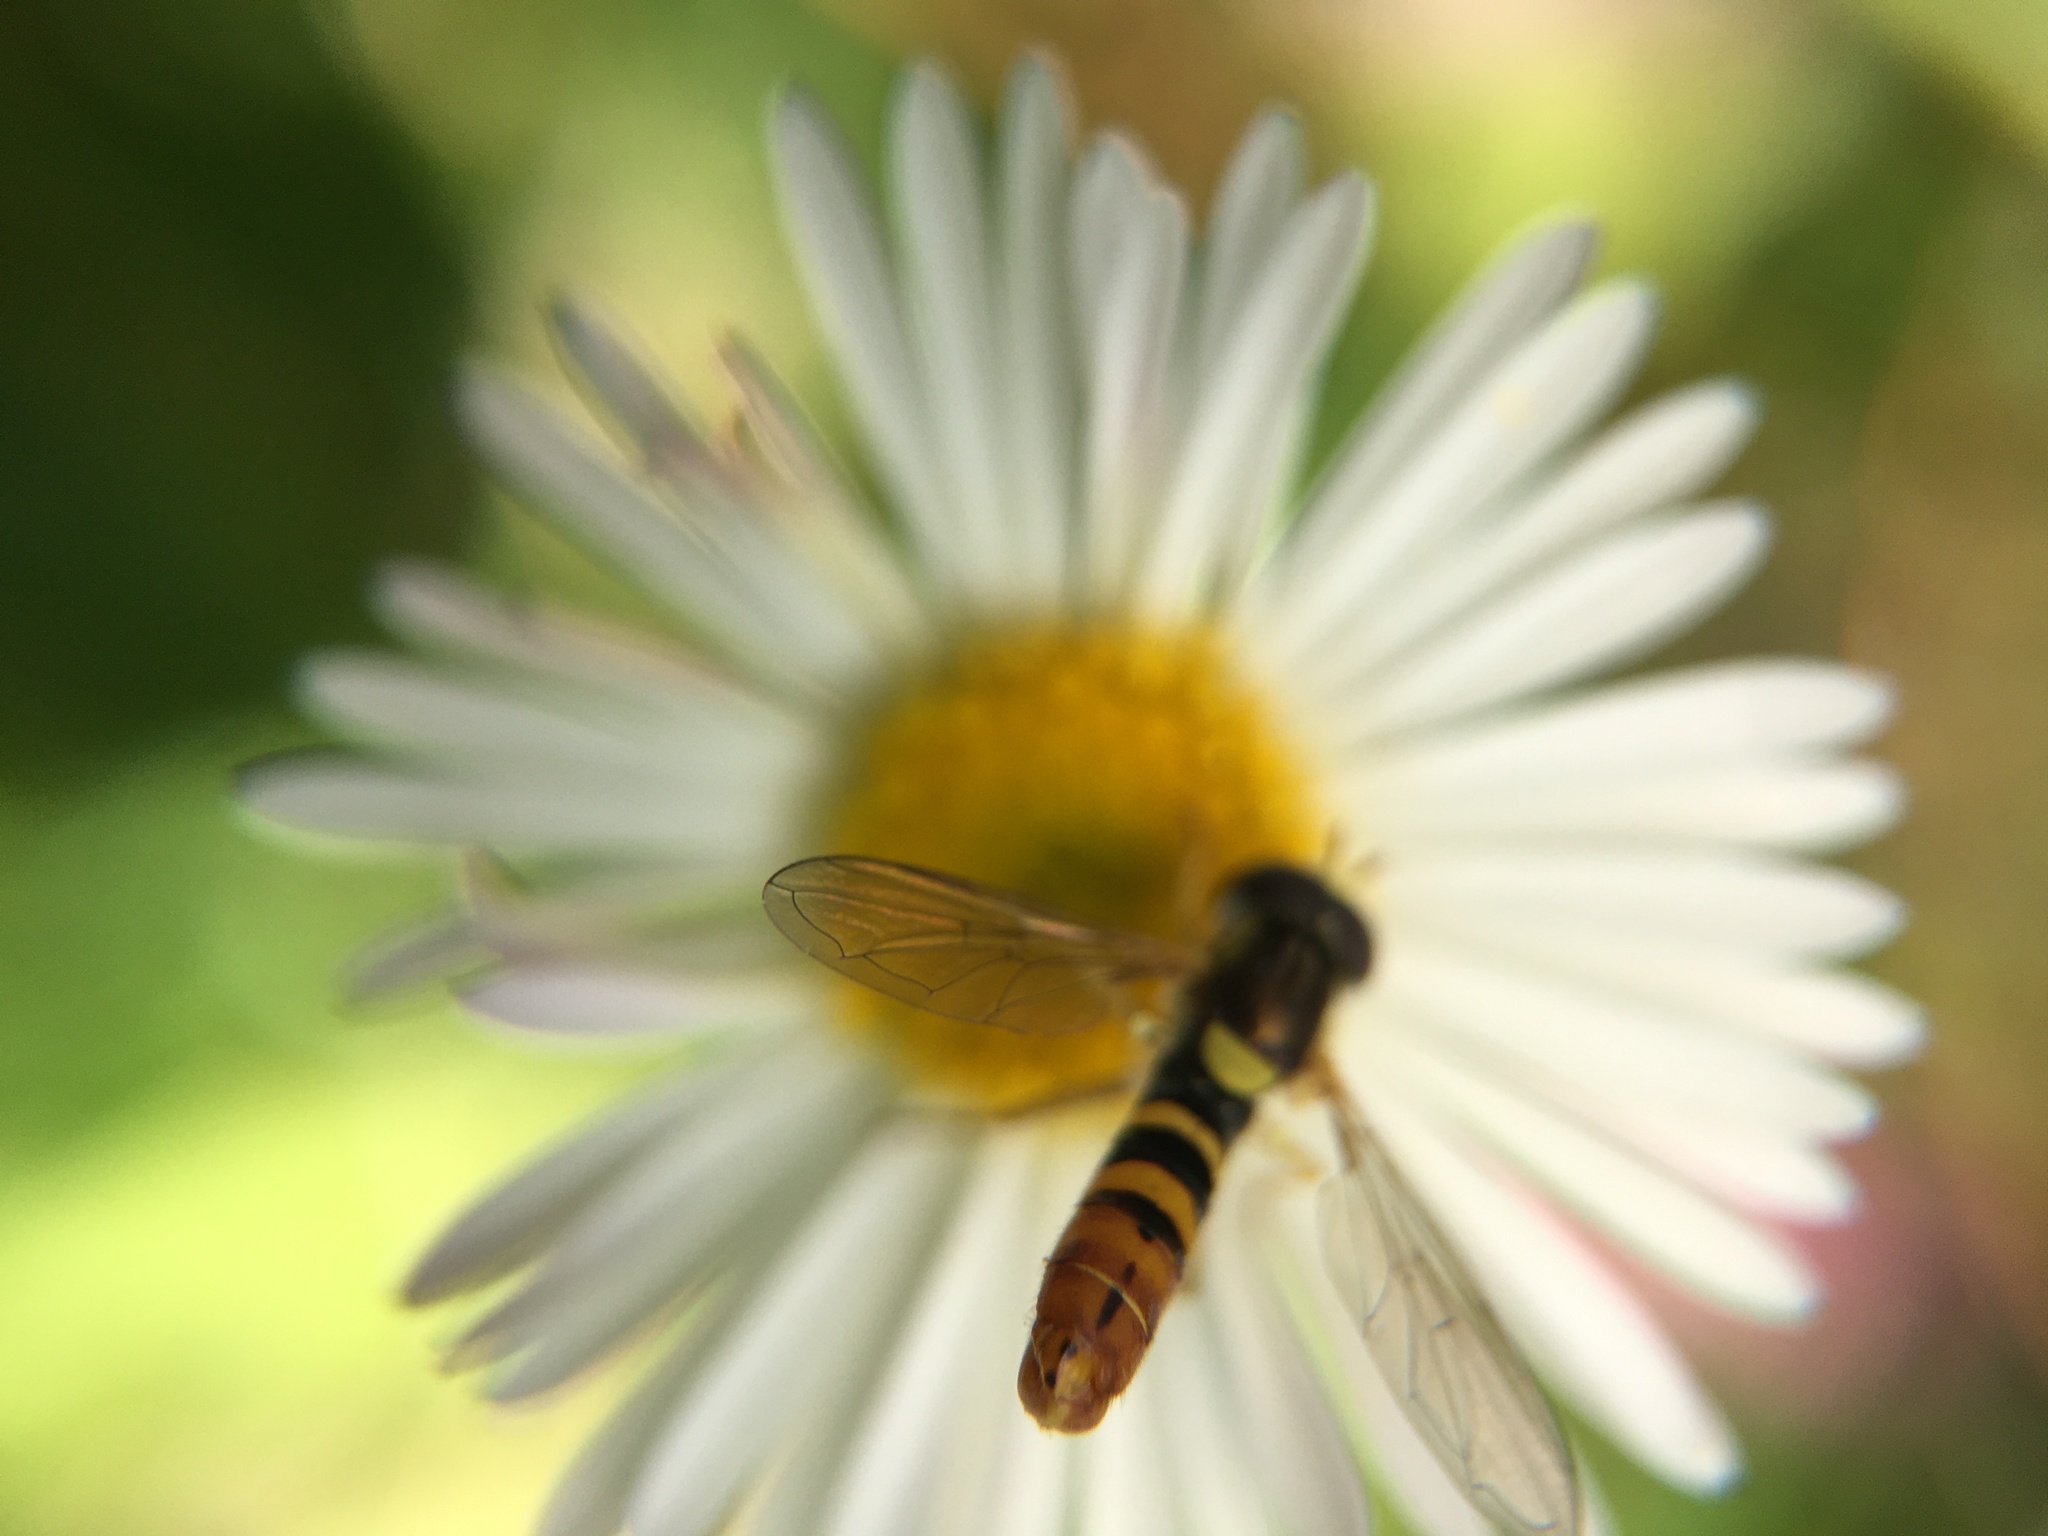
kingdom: Animalia
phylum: Arthropoda
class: Insecta
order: Diptera
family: Syrphidae
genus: Sphaerophoria
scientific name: Sphaerophoria sulphuripes
